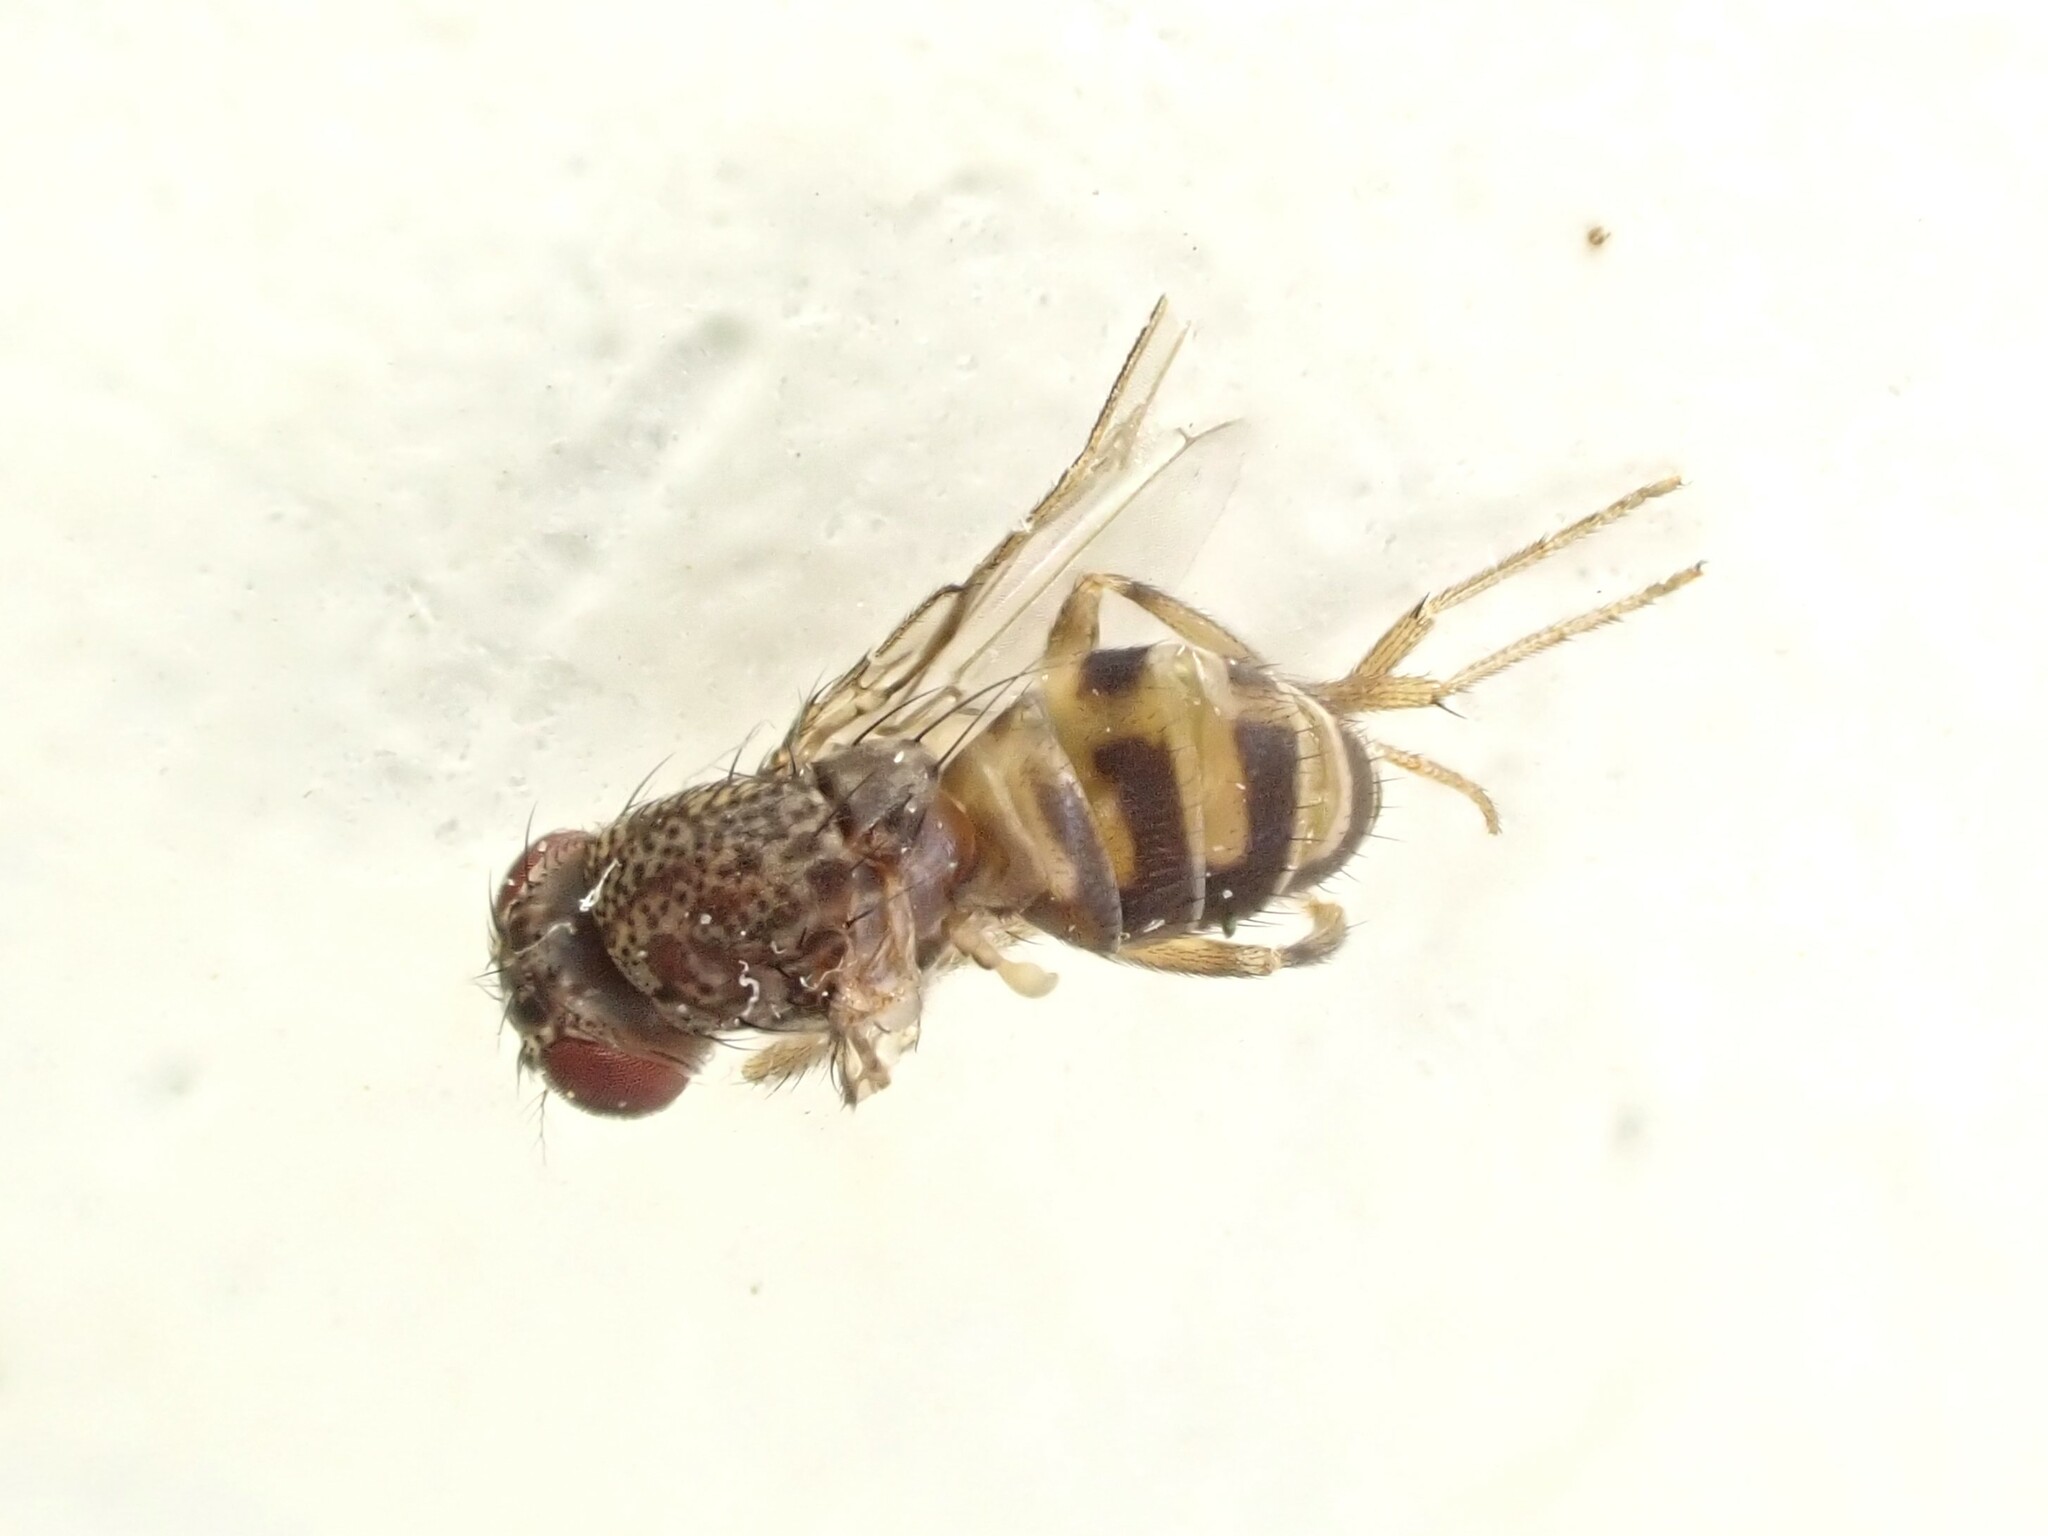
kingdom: Animalia
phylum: Arthropoda
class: Insecta
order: Diptera
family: Drosophilidae
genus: Drosophila
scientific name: Drosophila hydei
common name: Pomace fly
